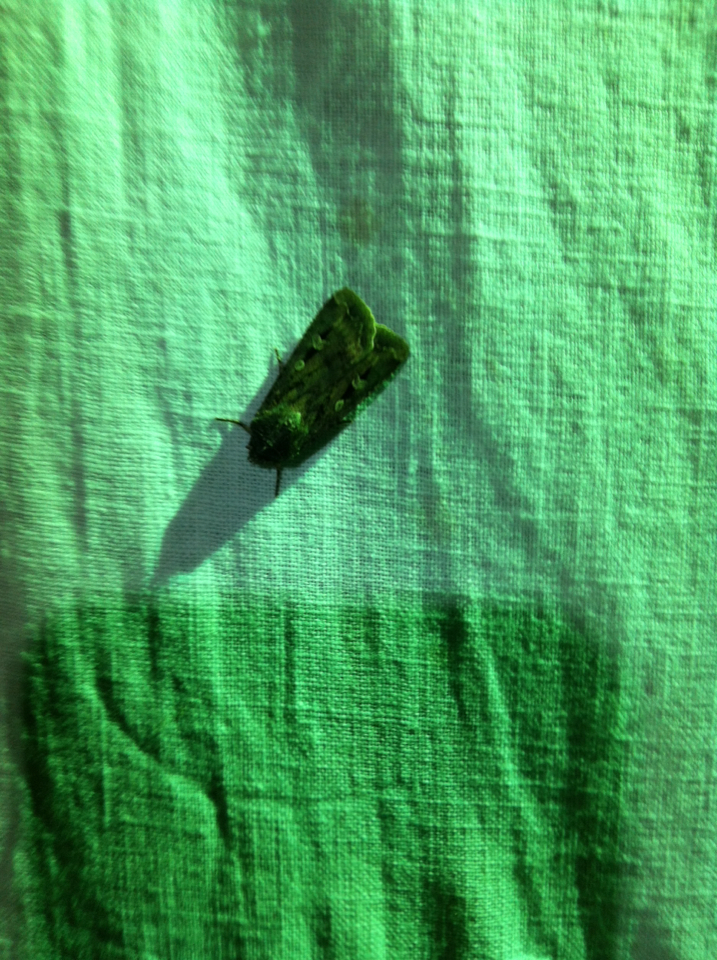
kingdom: Animalia
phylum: Arthropoda
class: Insecta
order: Lepidoptera
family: Noctuidae
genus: Agrotis
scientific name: Agrotis infusa
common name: Bogong moth
